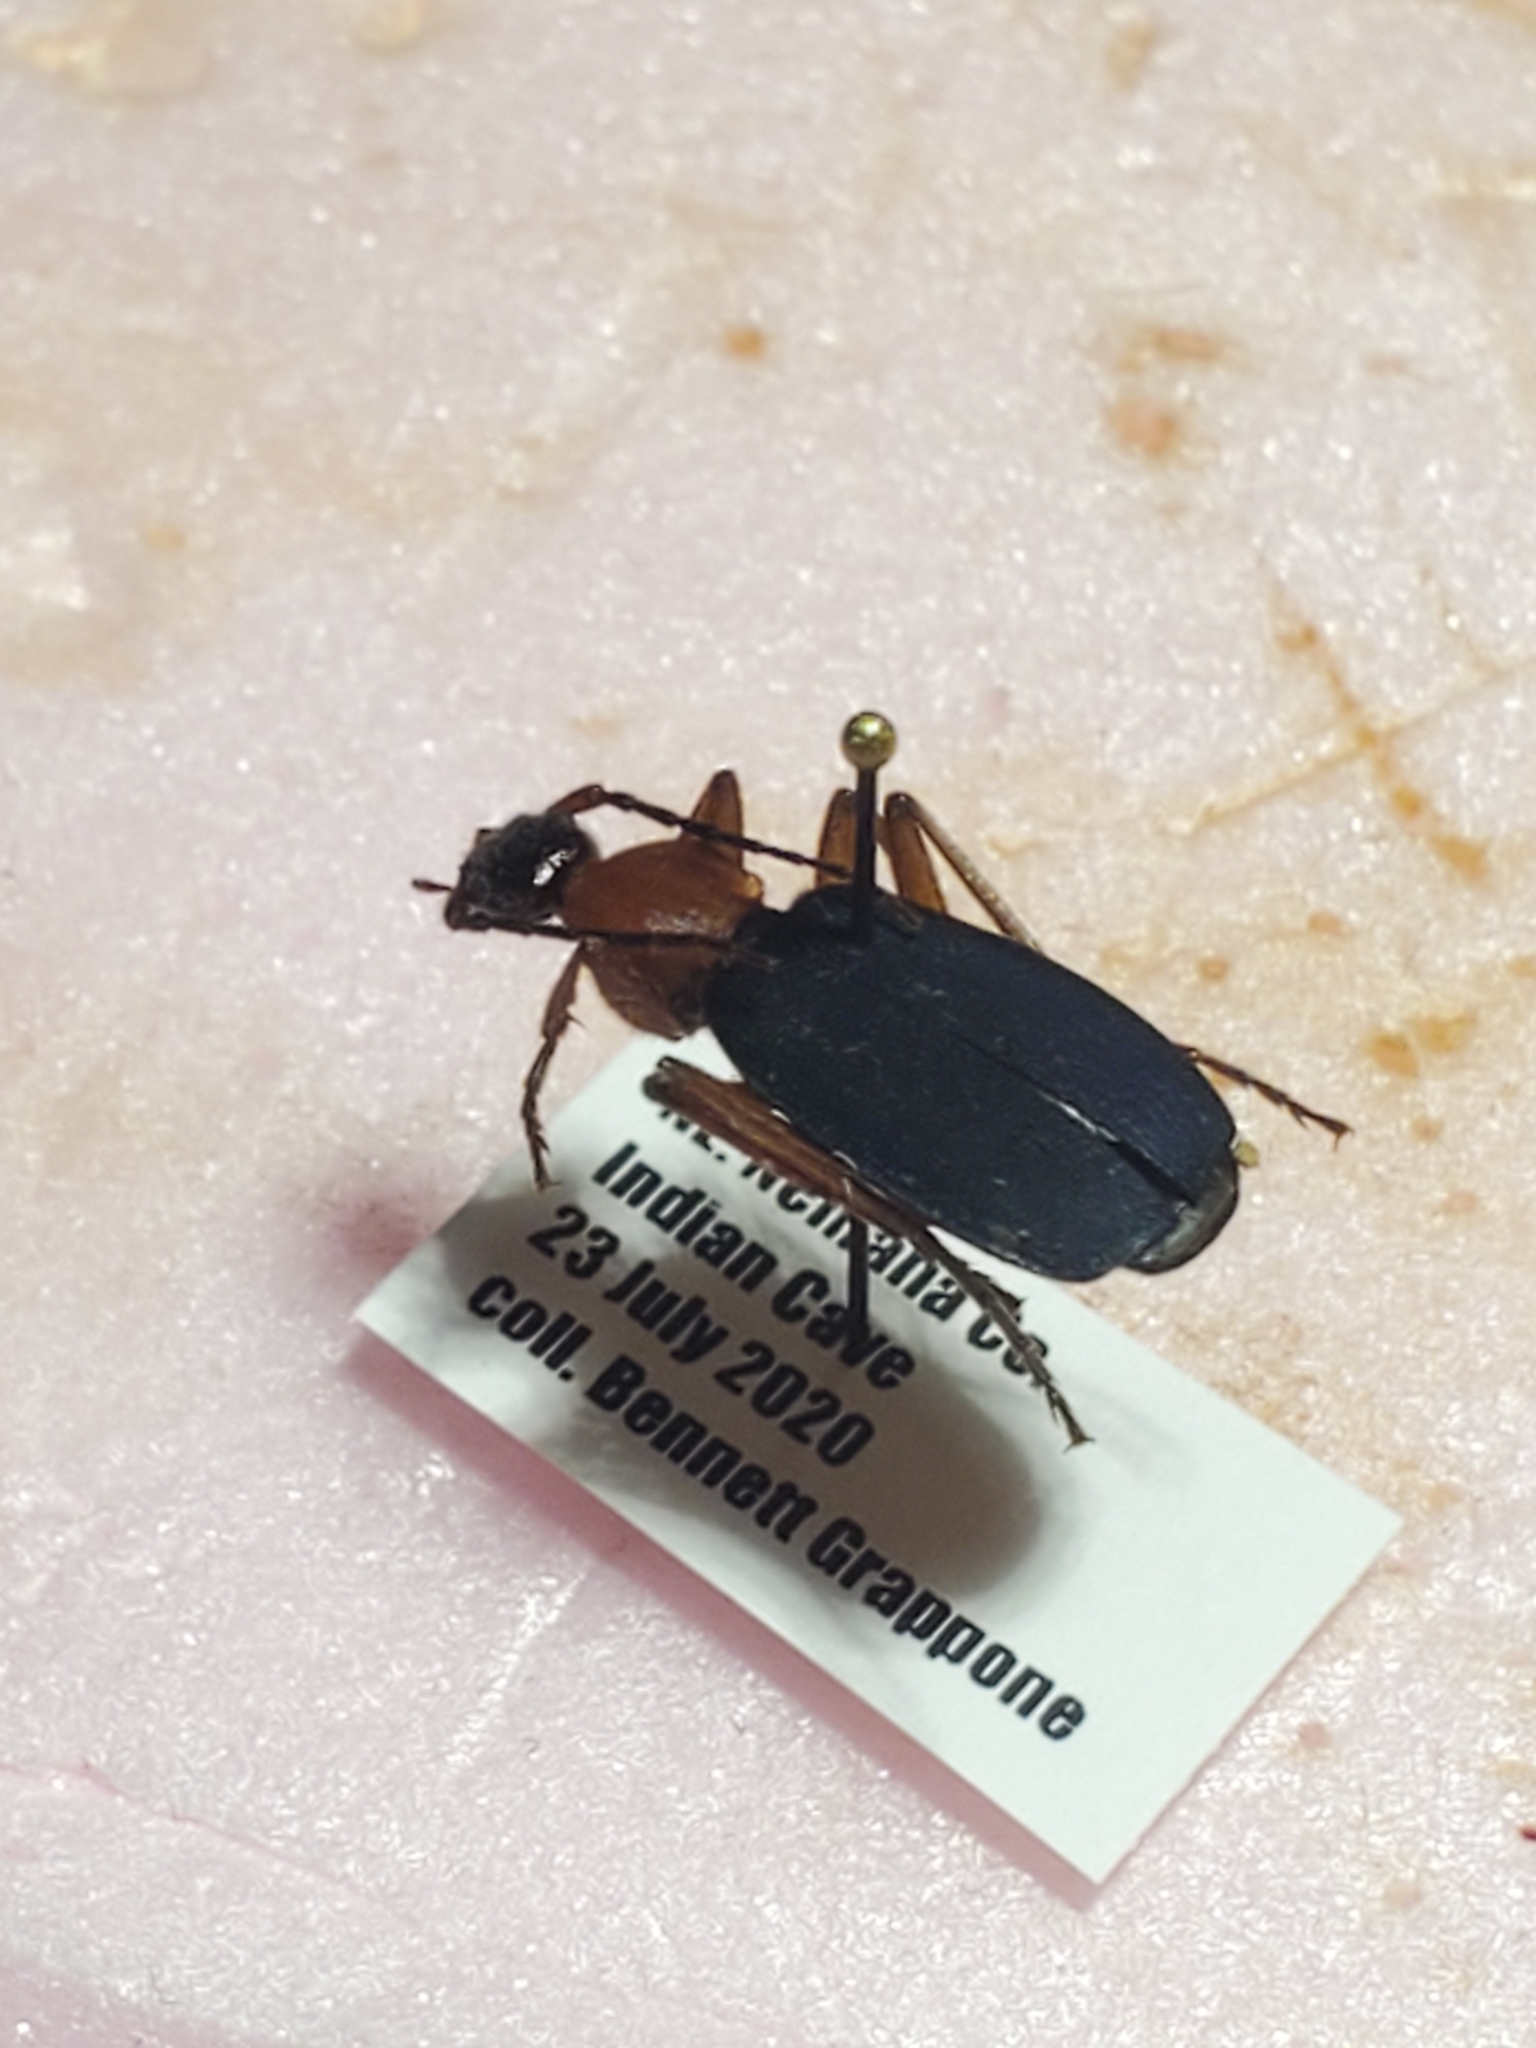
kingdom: Animalia
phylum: Arthropoda
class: Insecta
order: Coleoptera
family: Carabidae
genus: Galerita
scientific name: Galerita bicolor
